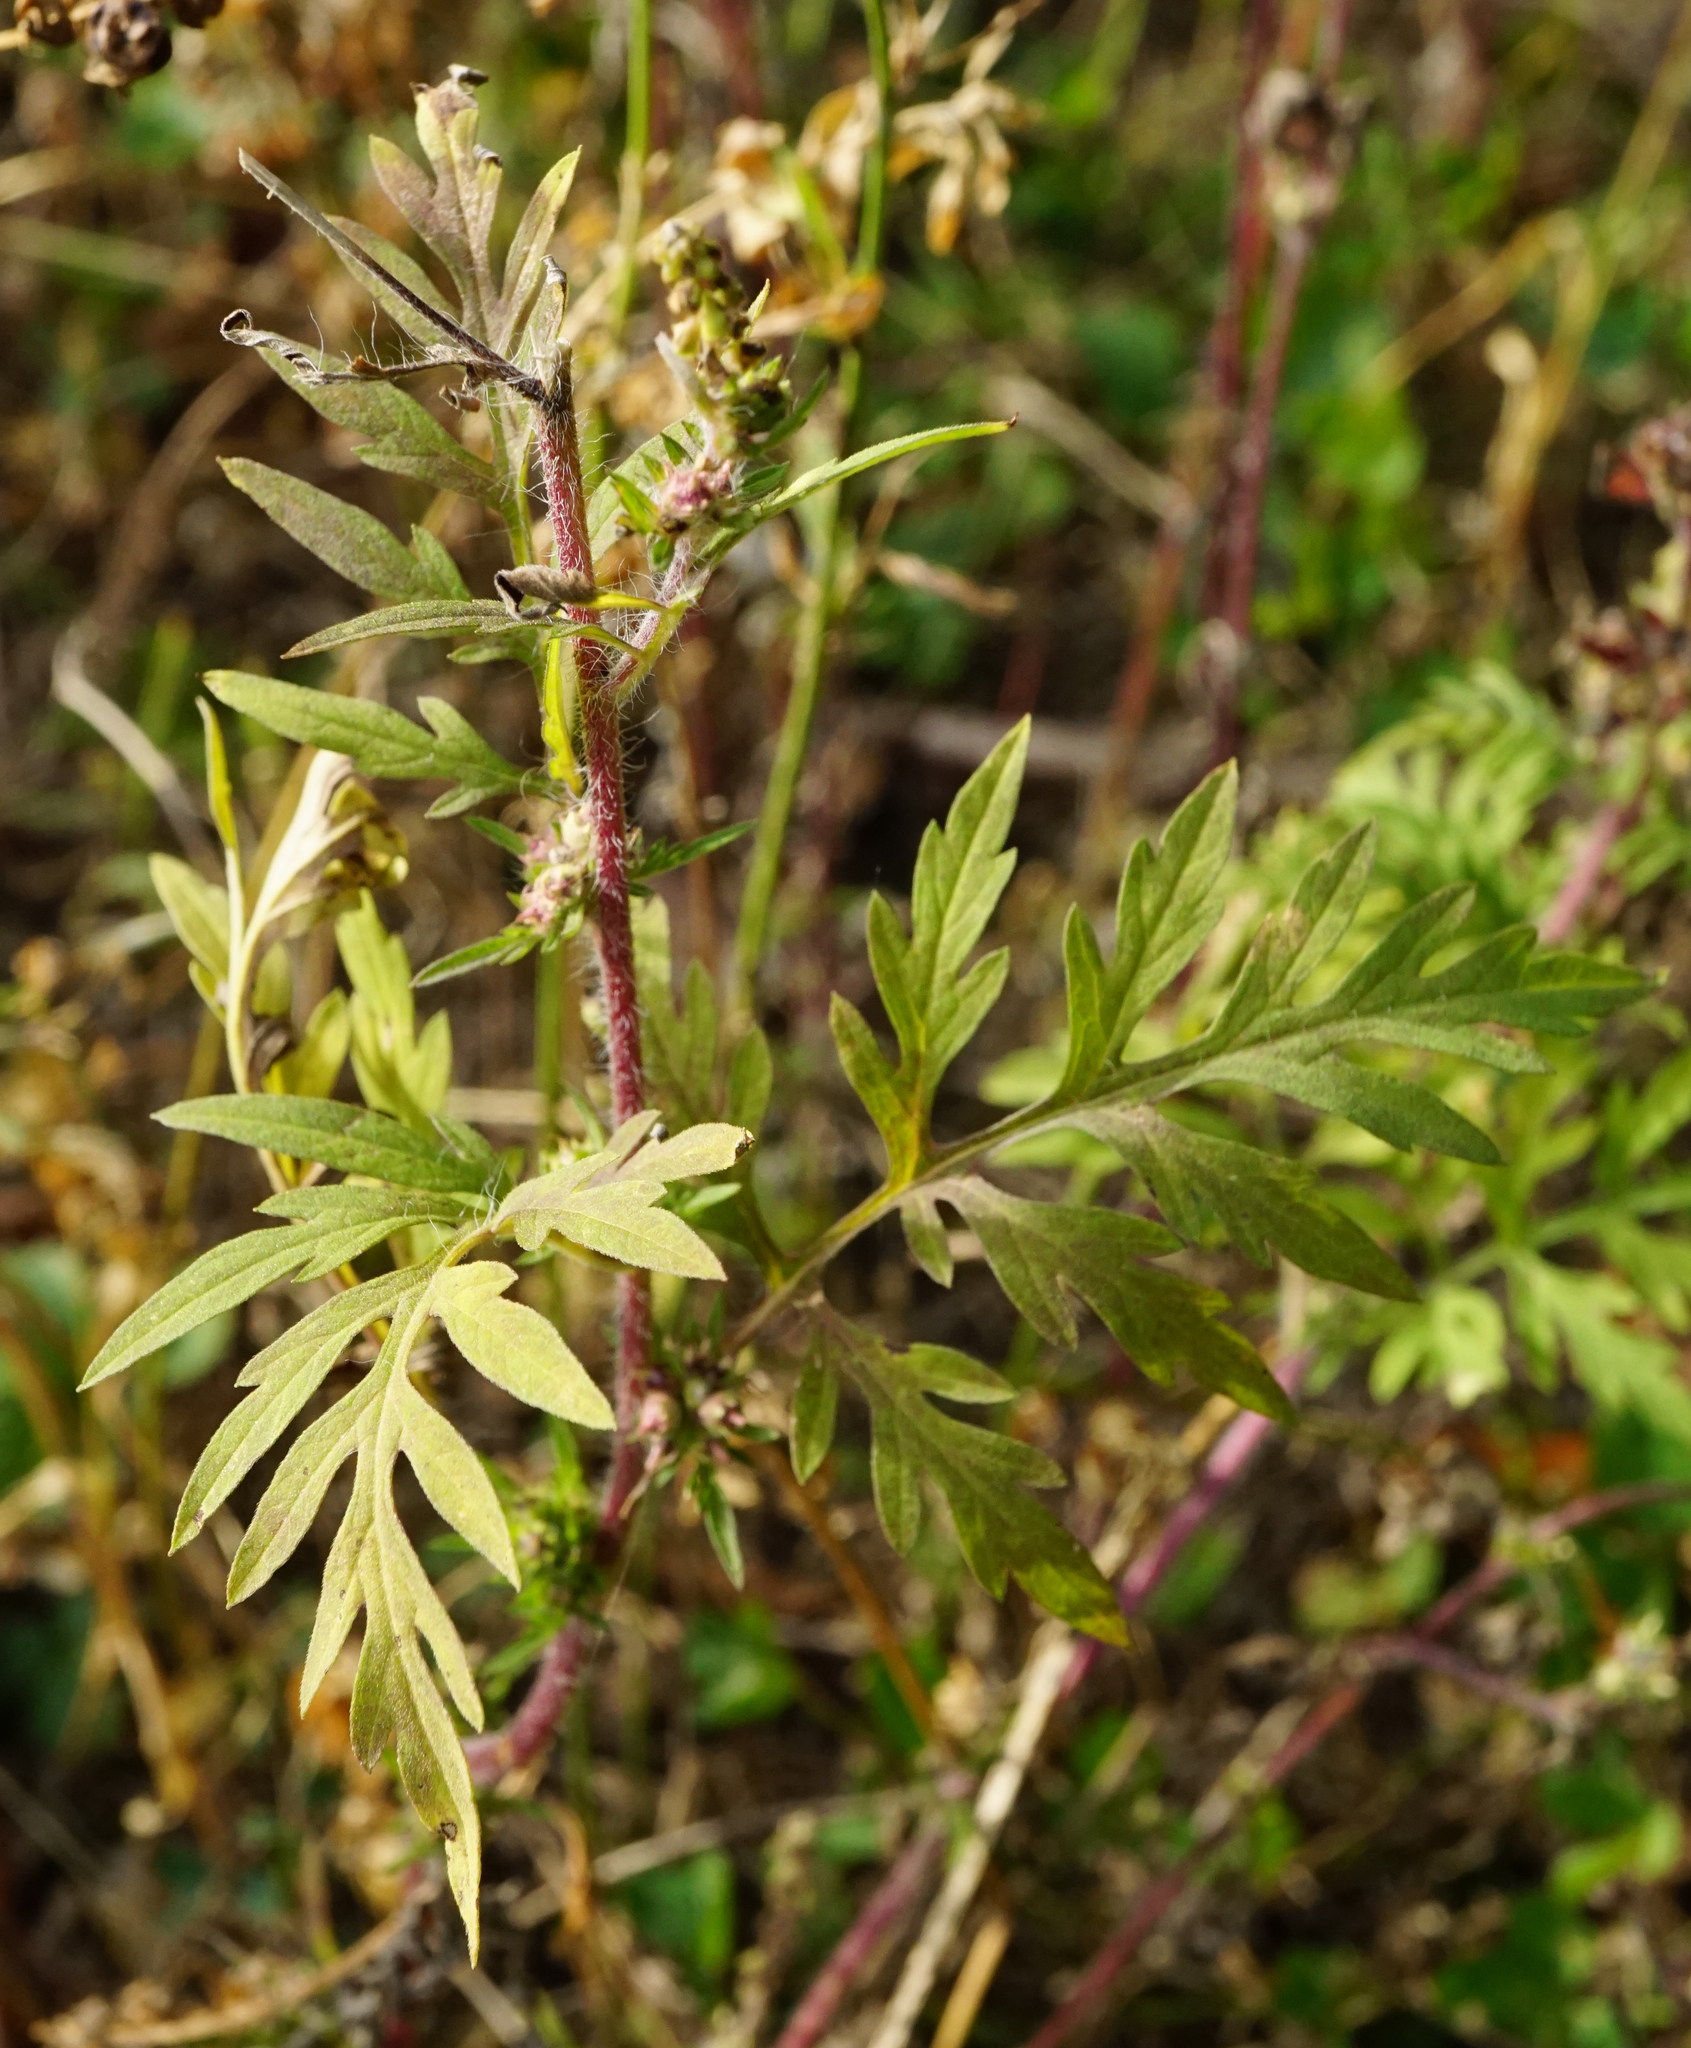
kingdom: Plantae
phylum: Tracheophyta
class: Magnoliopsida
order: Asterales
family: Asteraceae
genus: Ambrosia
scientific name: Ambrosia artemisiifolia
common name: Annual ragweed
